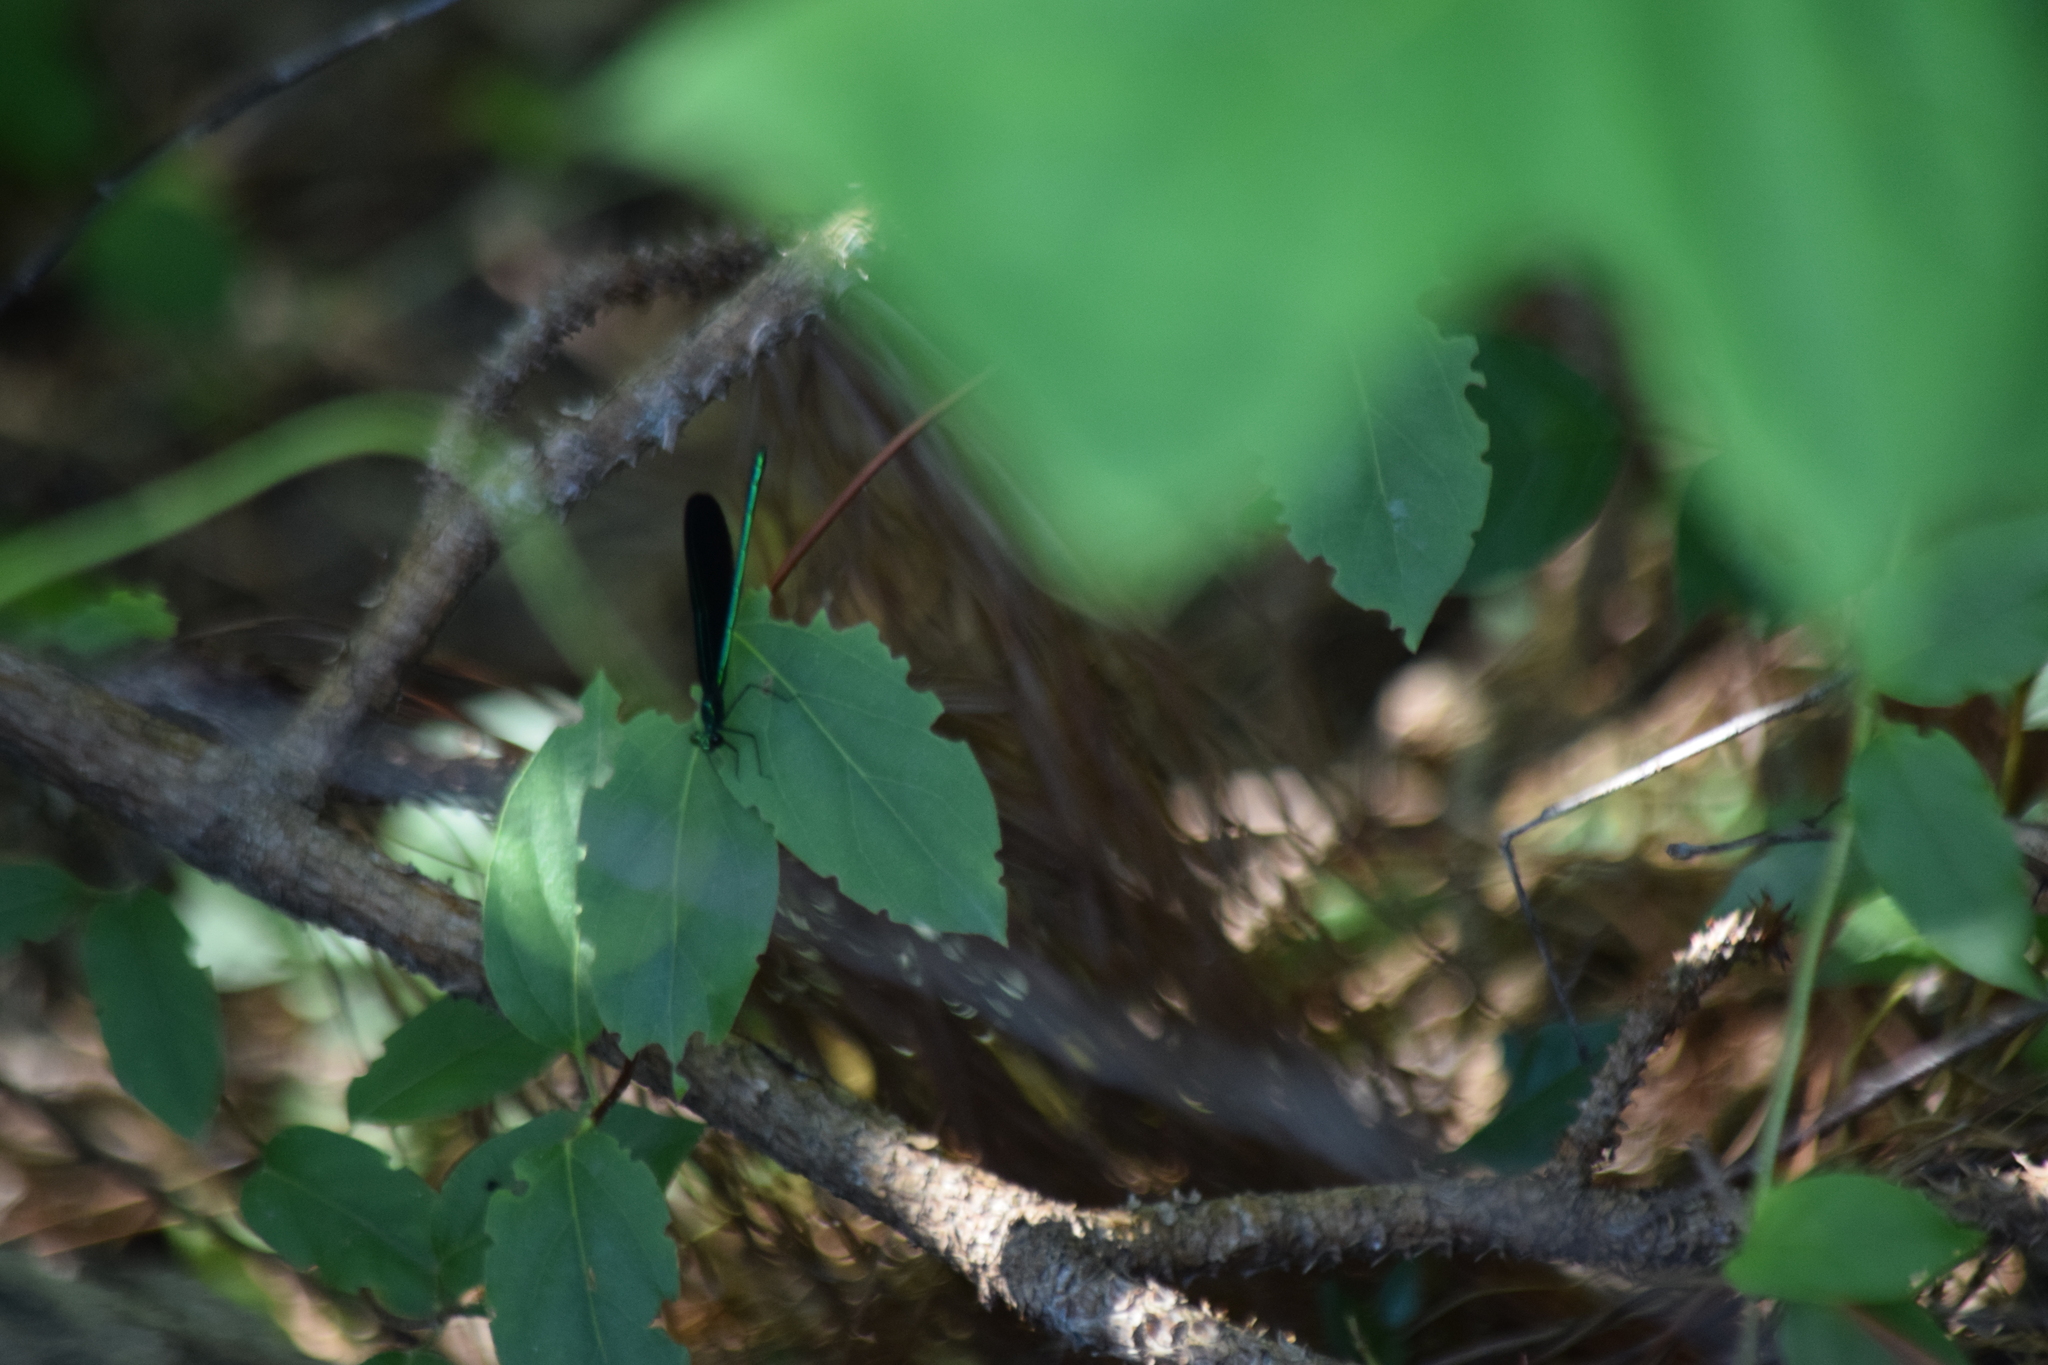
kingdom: Animalia
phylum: Arthropoda
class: Insecta
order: Odonata
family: Calopterygidae
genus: Calopteryx
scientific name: Calopteryx maculata
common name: Ebony jewelwing
